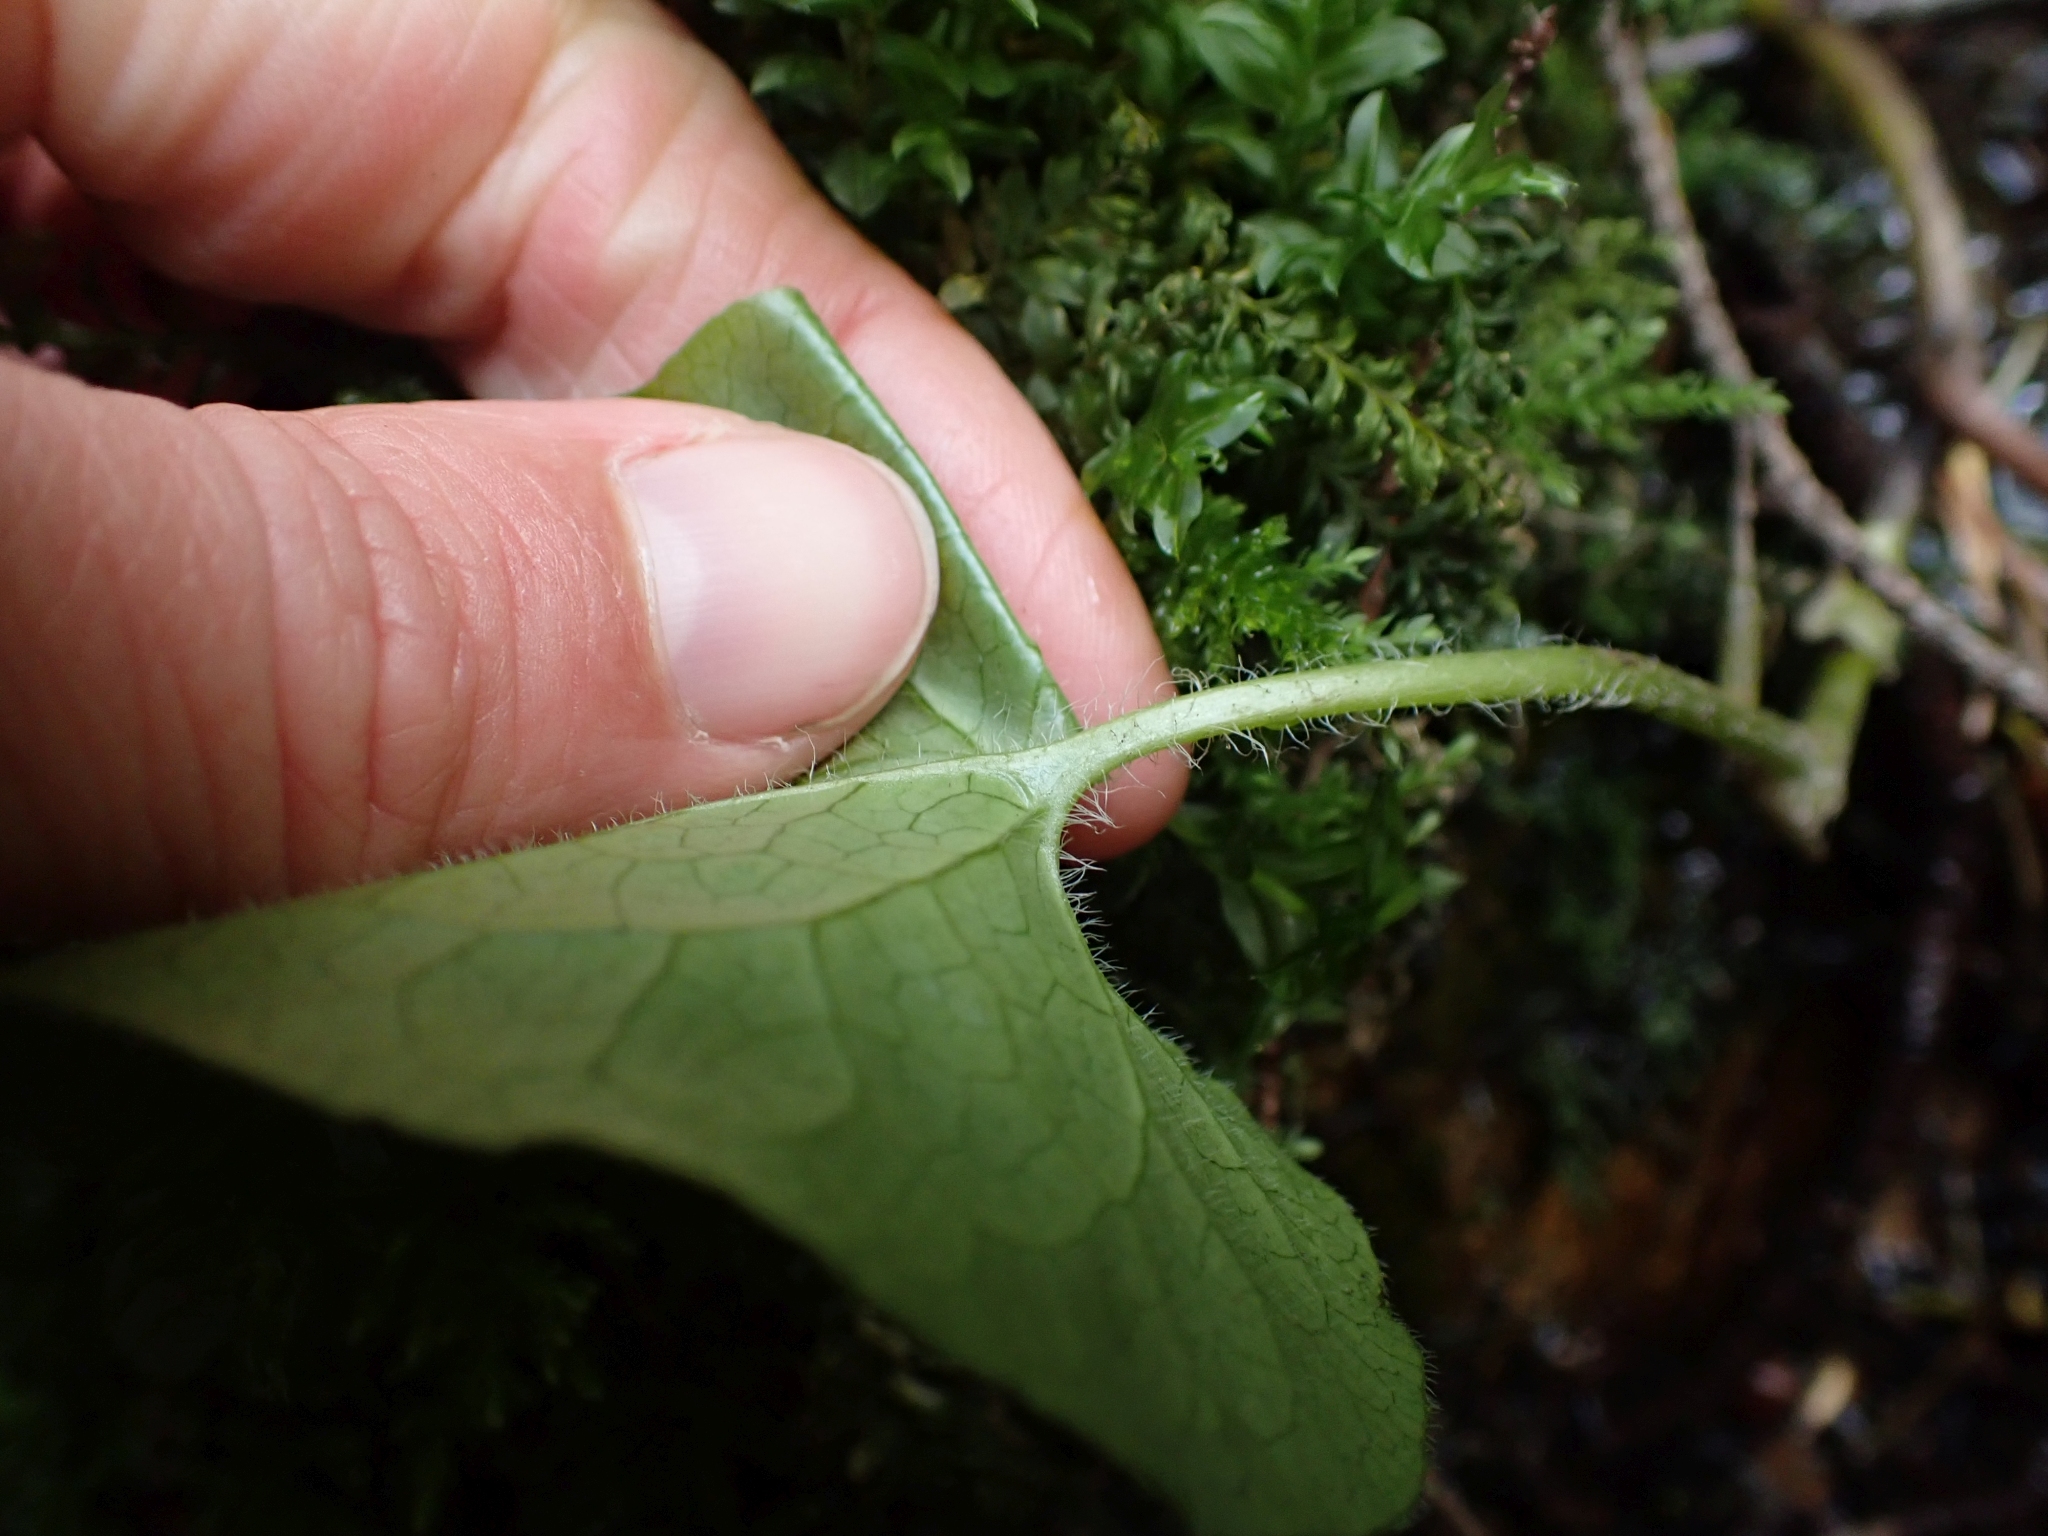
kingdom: Plantae
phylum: Tracheophyta
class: Magnoliopsida
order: Piperales
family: Aristolochiaceae
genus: Asarum
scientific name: Asarum caudatum
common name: Wild ginger
